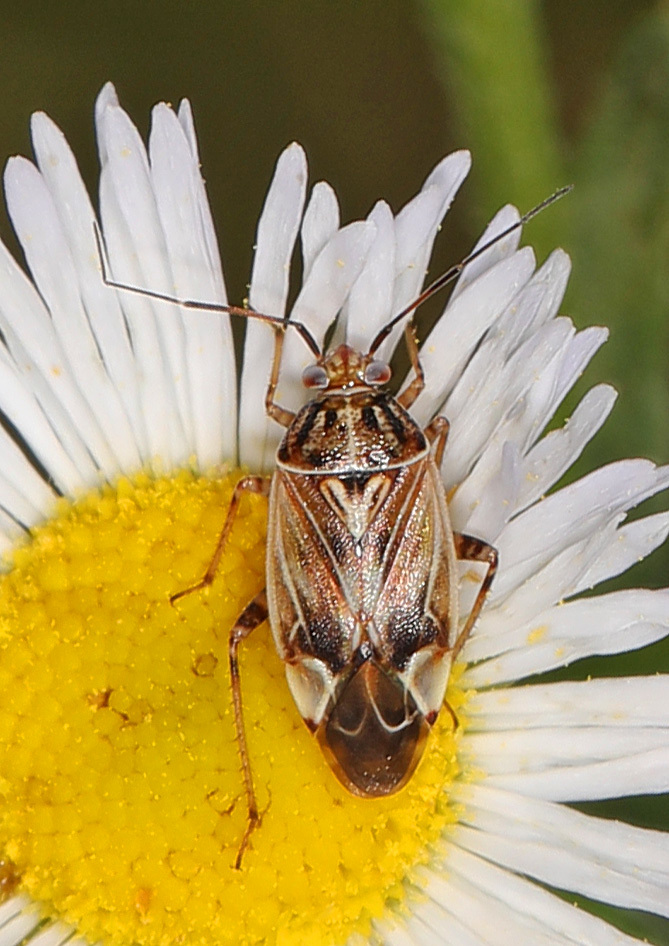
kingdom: Animalia
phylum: Arthropoda
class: Insecta
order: Hemiptera
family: Miridae
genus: Lygus
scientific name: Lygus lineolaris
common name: North american tarnished plant bug
